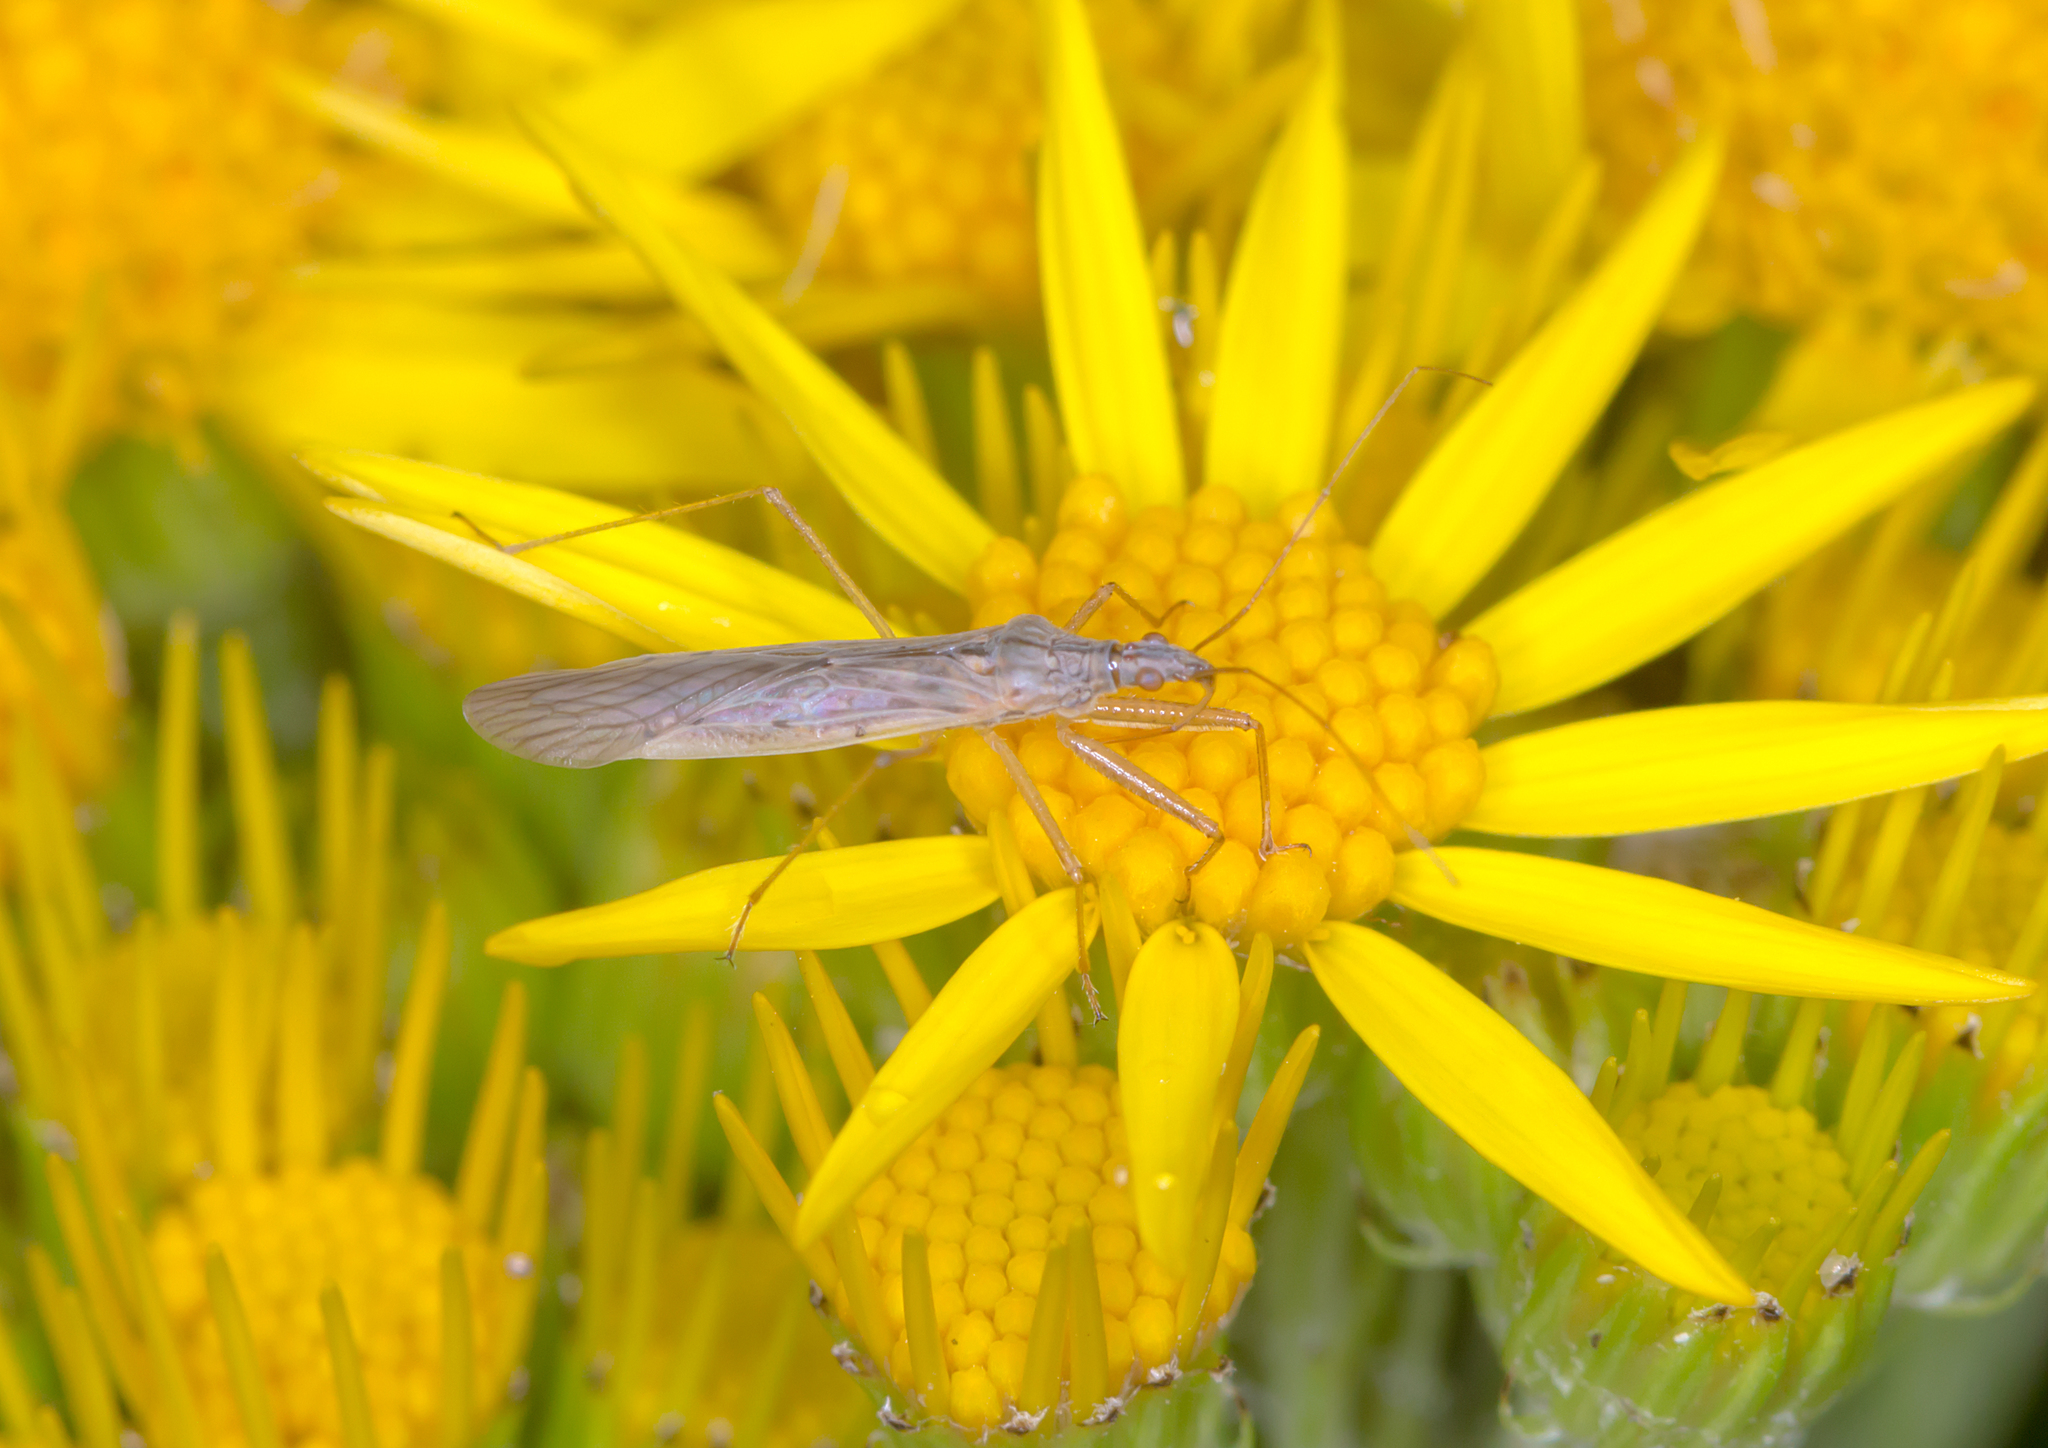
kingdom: Animalia
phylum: Arthropoda
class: Insecta
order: Hemiptera
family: Nabidae
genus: Nabis
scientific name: Nabis kinbergii
